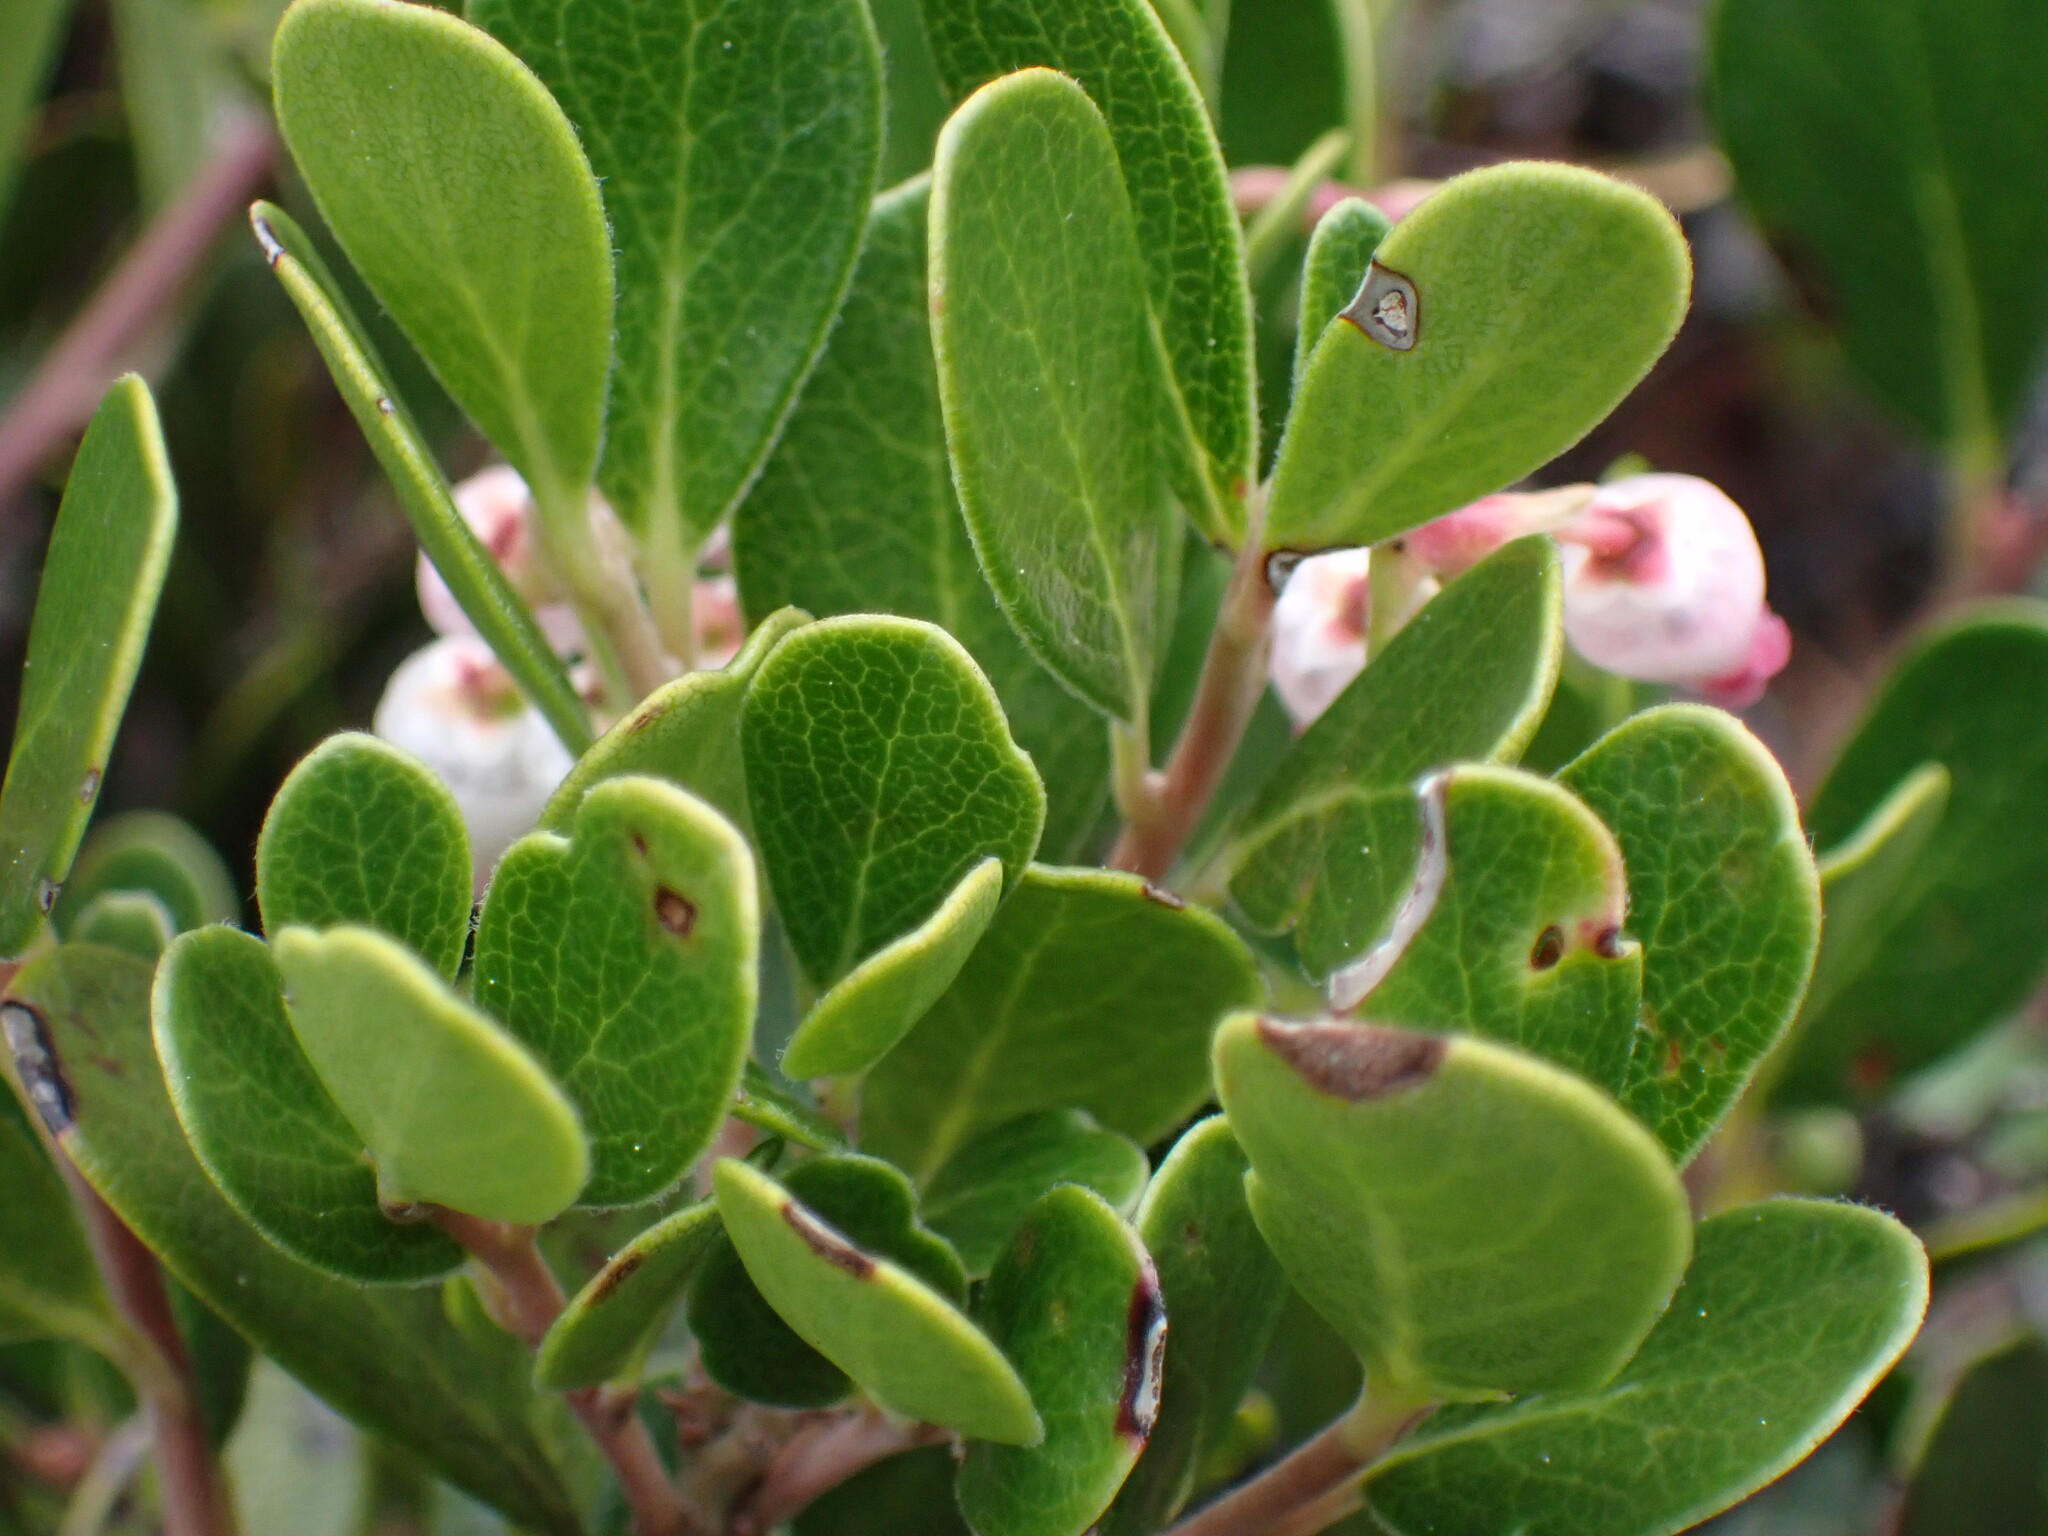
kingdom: Plantae
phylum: Tracheophyta
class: Magnoliopsida
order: Ericales
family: Ericaceae
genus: Arctostaphylos
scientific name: Arctostaphylos uva-ursi
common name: Bearberry
